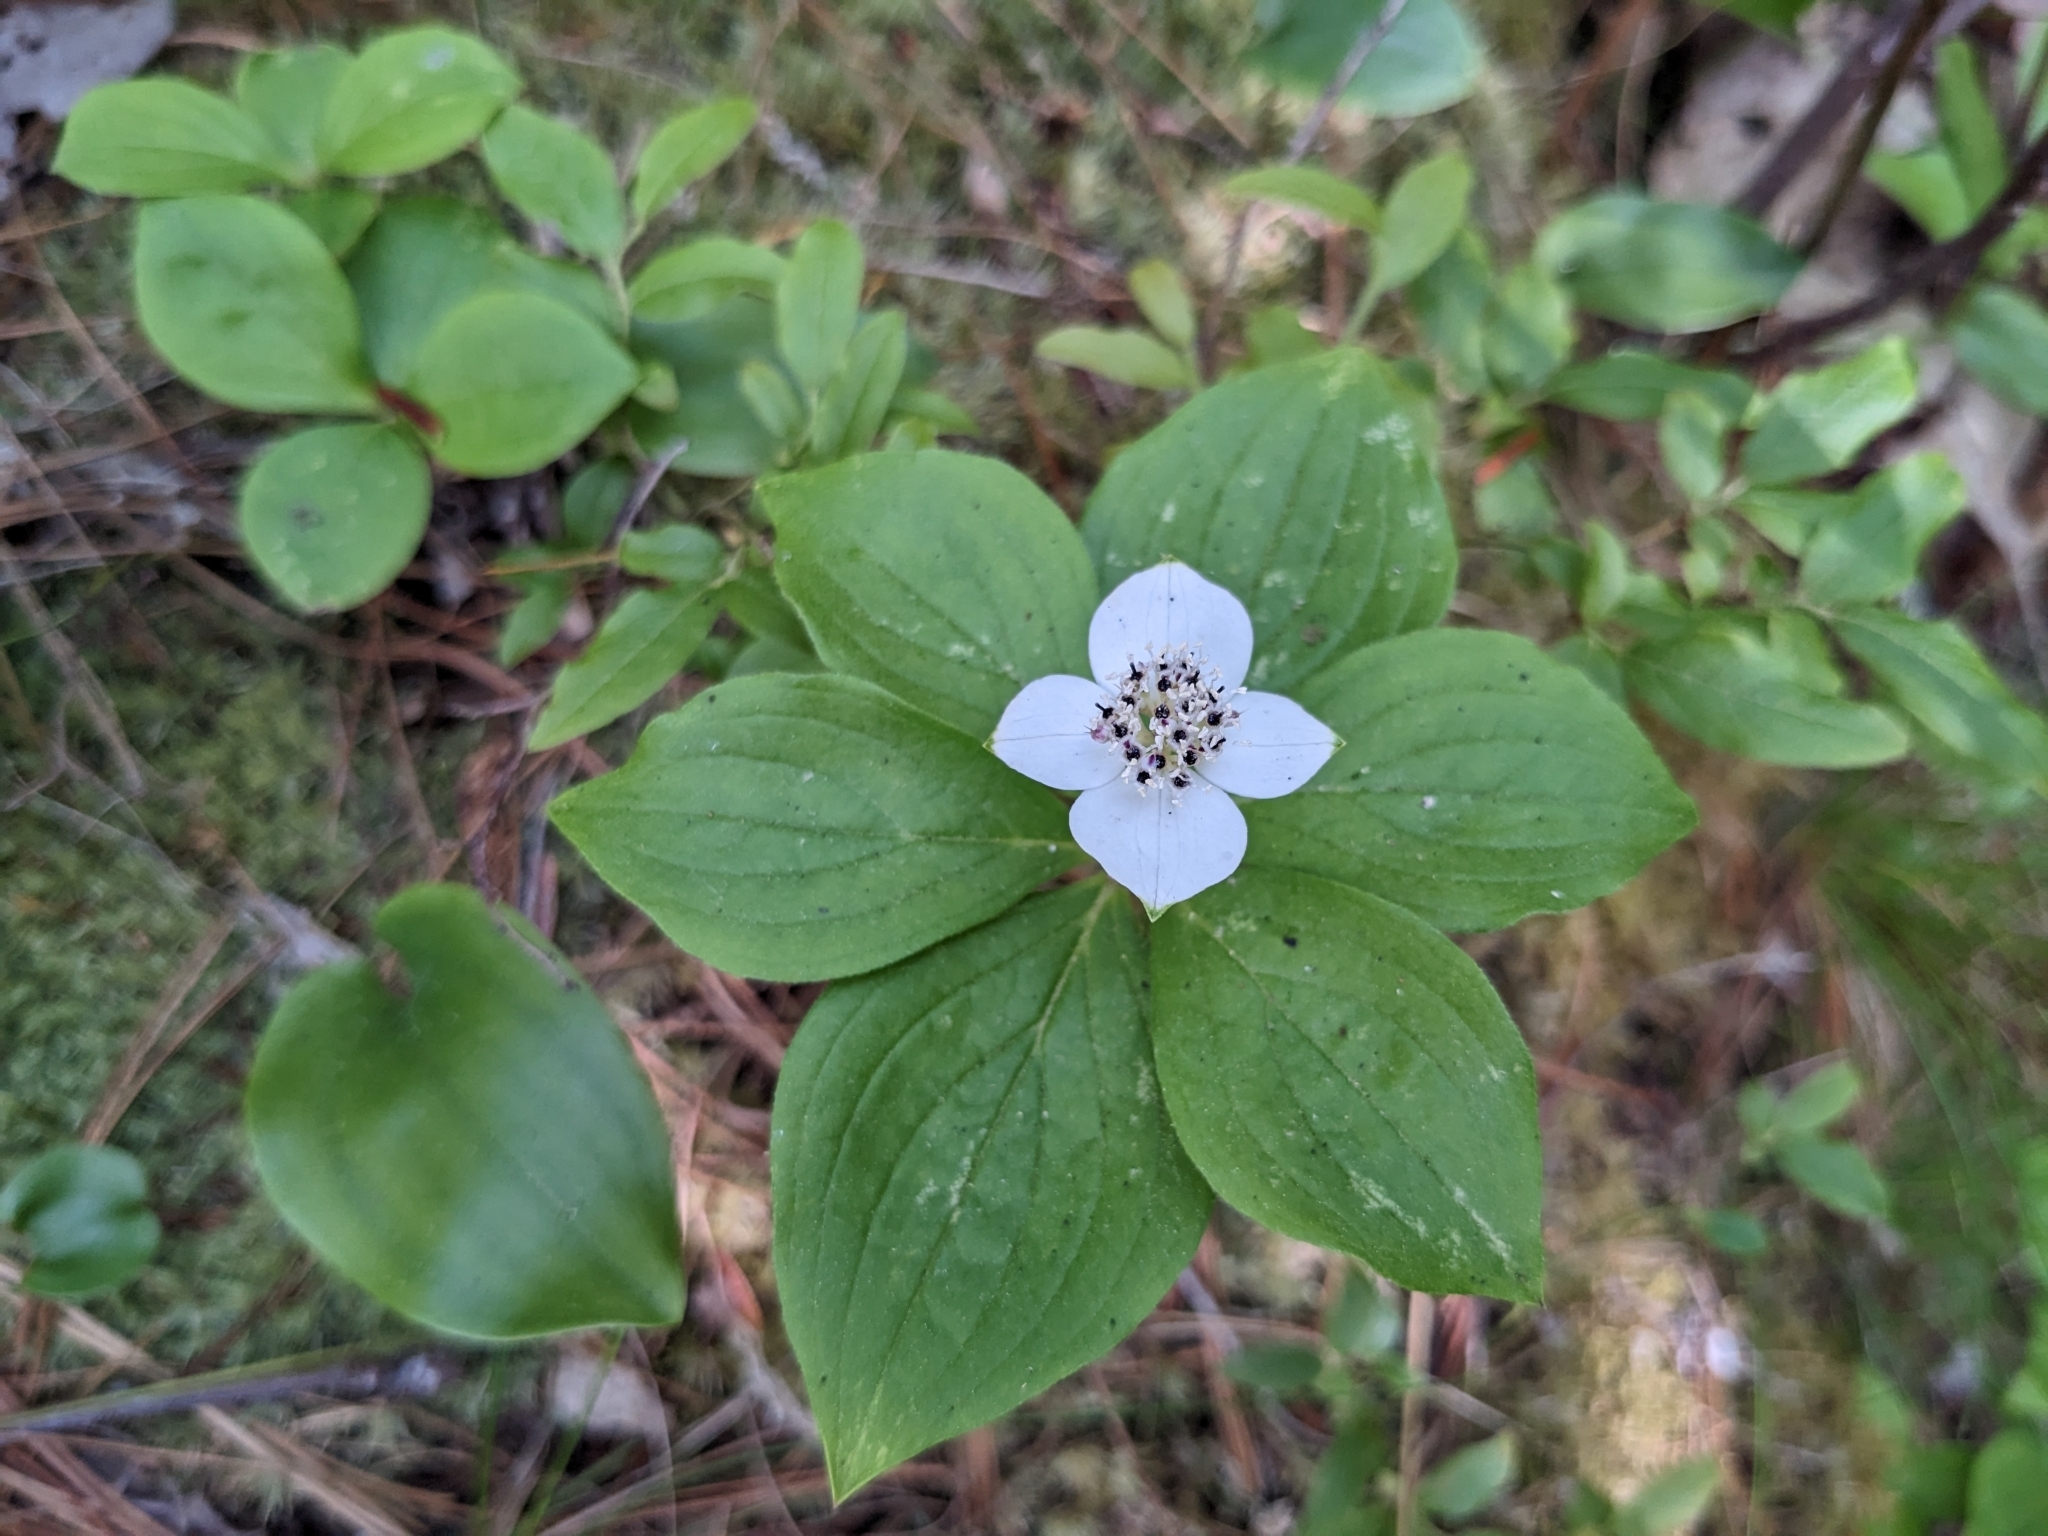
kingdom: Plantae
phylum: Tracheophyta
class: Magnoliopsida
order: Cornales
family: Cornaceae
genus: Cornus
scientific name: Cornus canadensis
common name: Creeping dogwood
